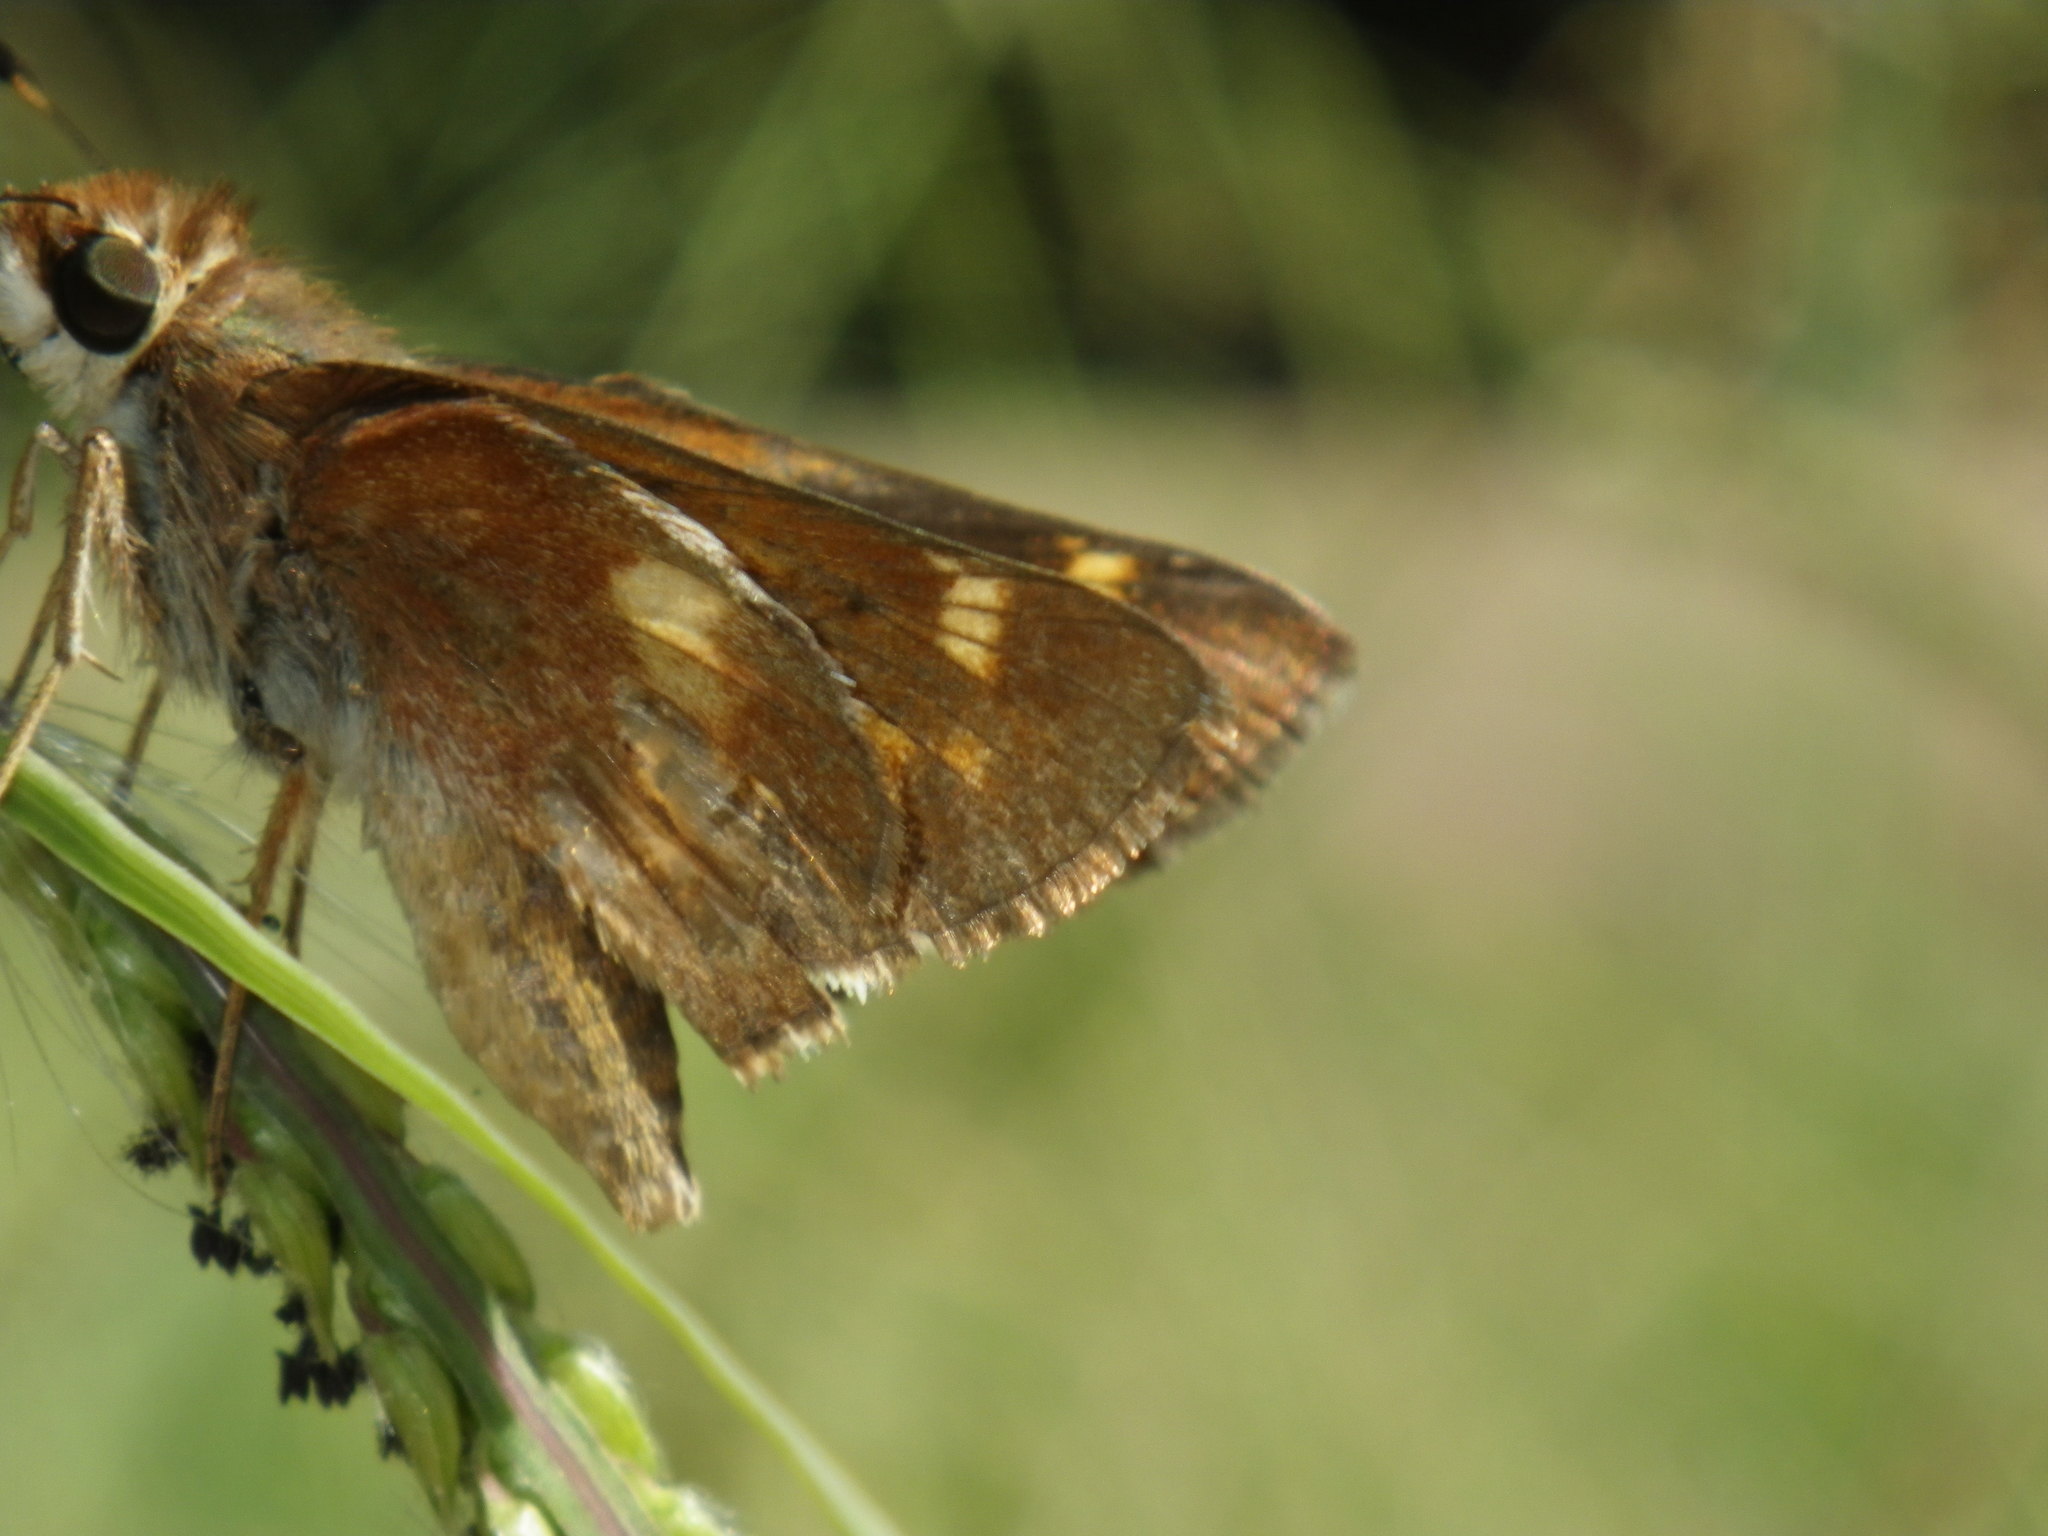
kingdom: Animalia
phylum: Arthropoda
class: Insecta
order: Lepidoptera
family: Hesperiidae
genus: Lon
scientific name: Lon melane
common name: Umber skipper
